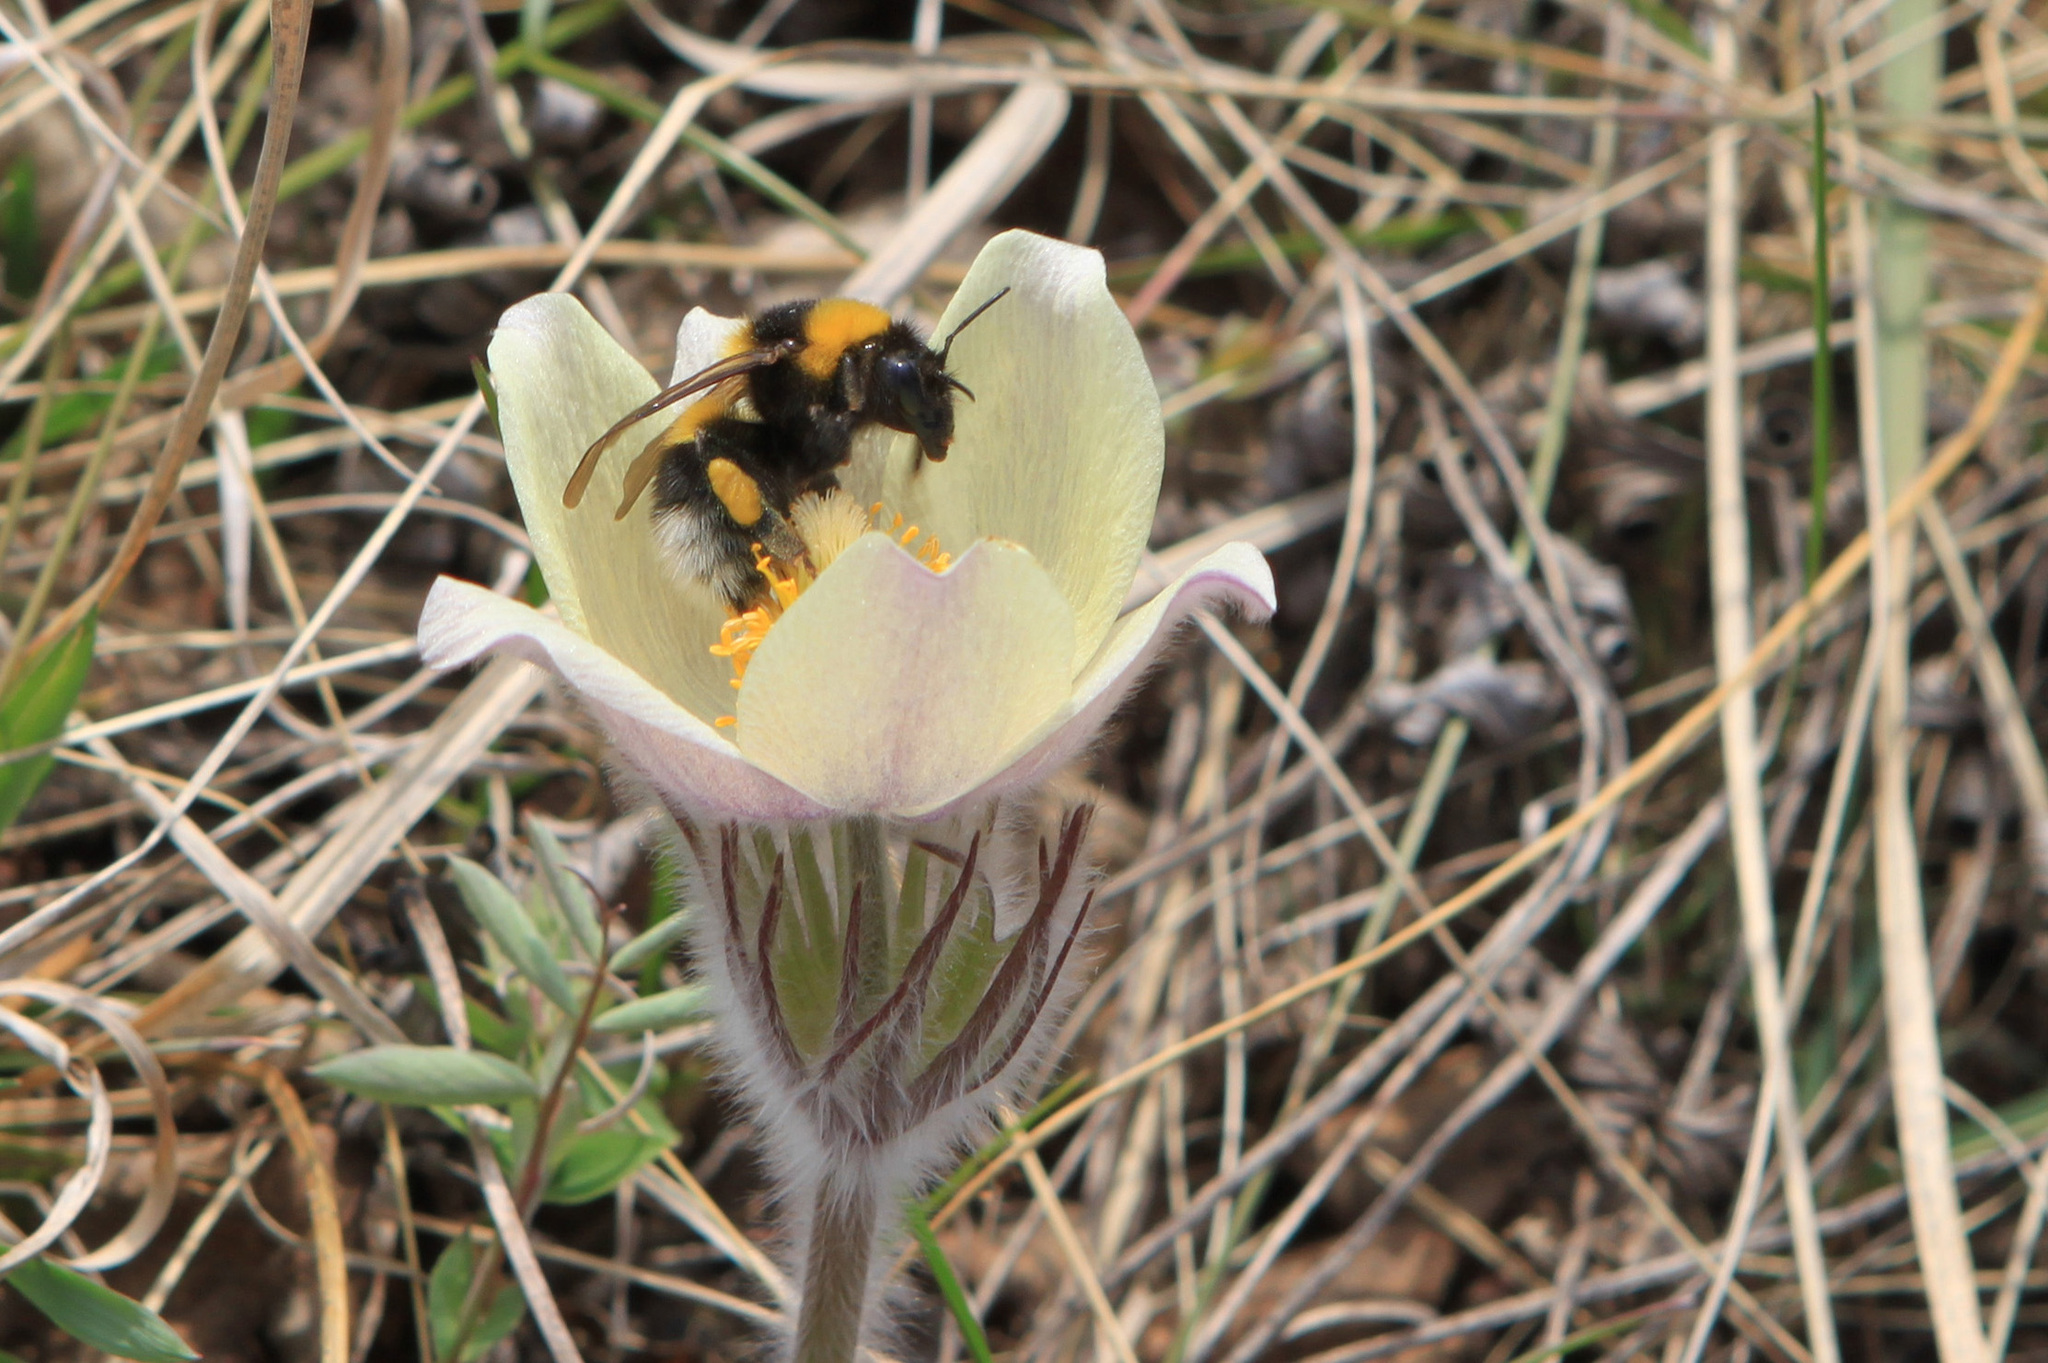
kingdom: Animalia
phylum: Arthropoda
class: Insecta
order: Hymenoptera
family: Apidae
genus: Bombus
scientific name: Bombus hortorum
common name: Garden bumblebee
